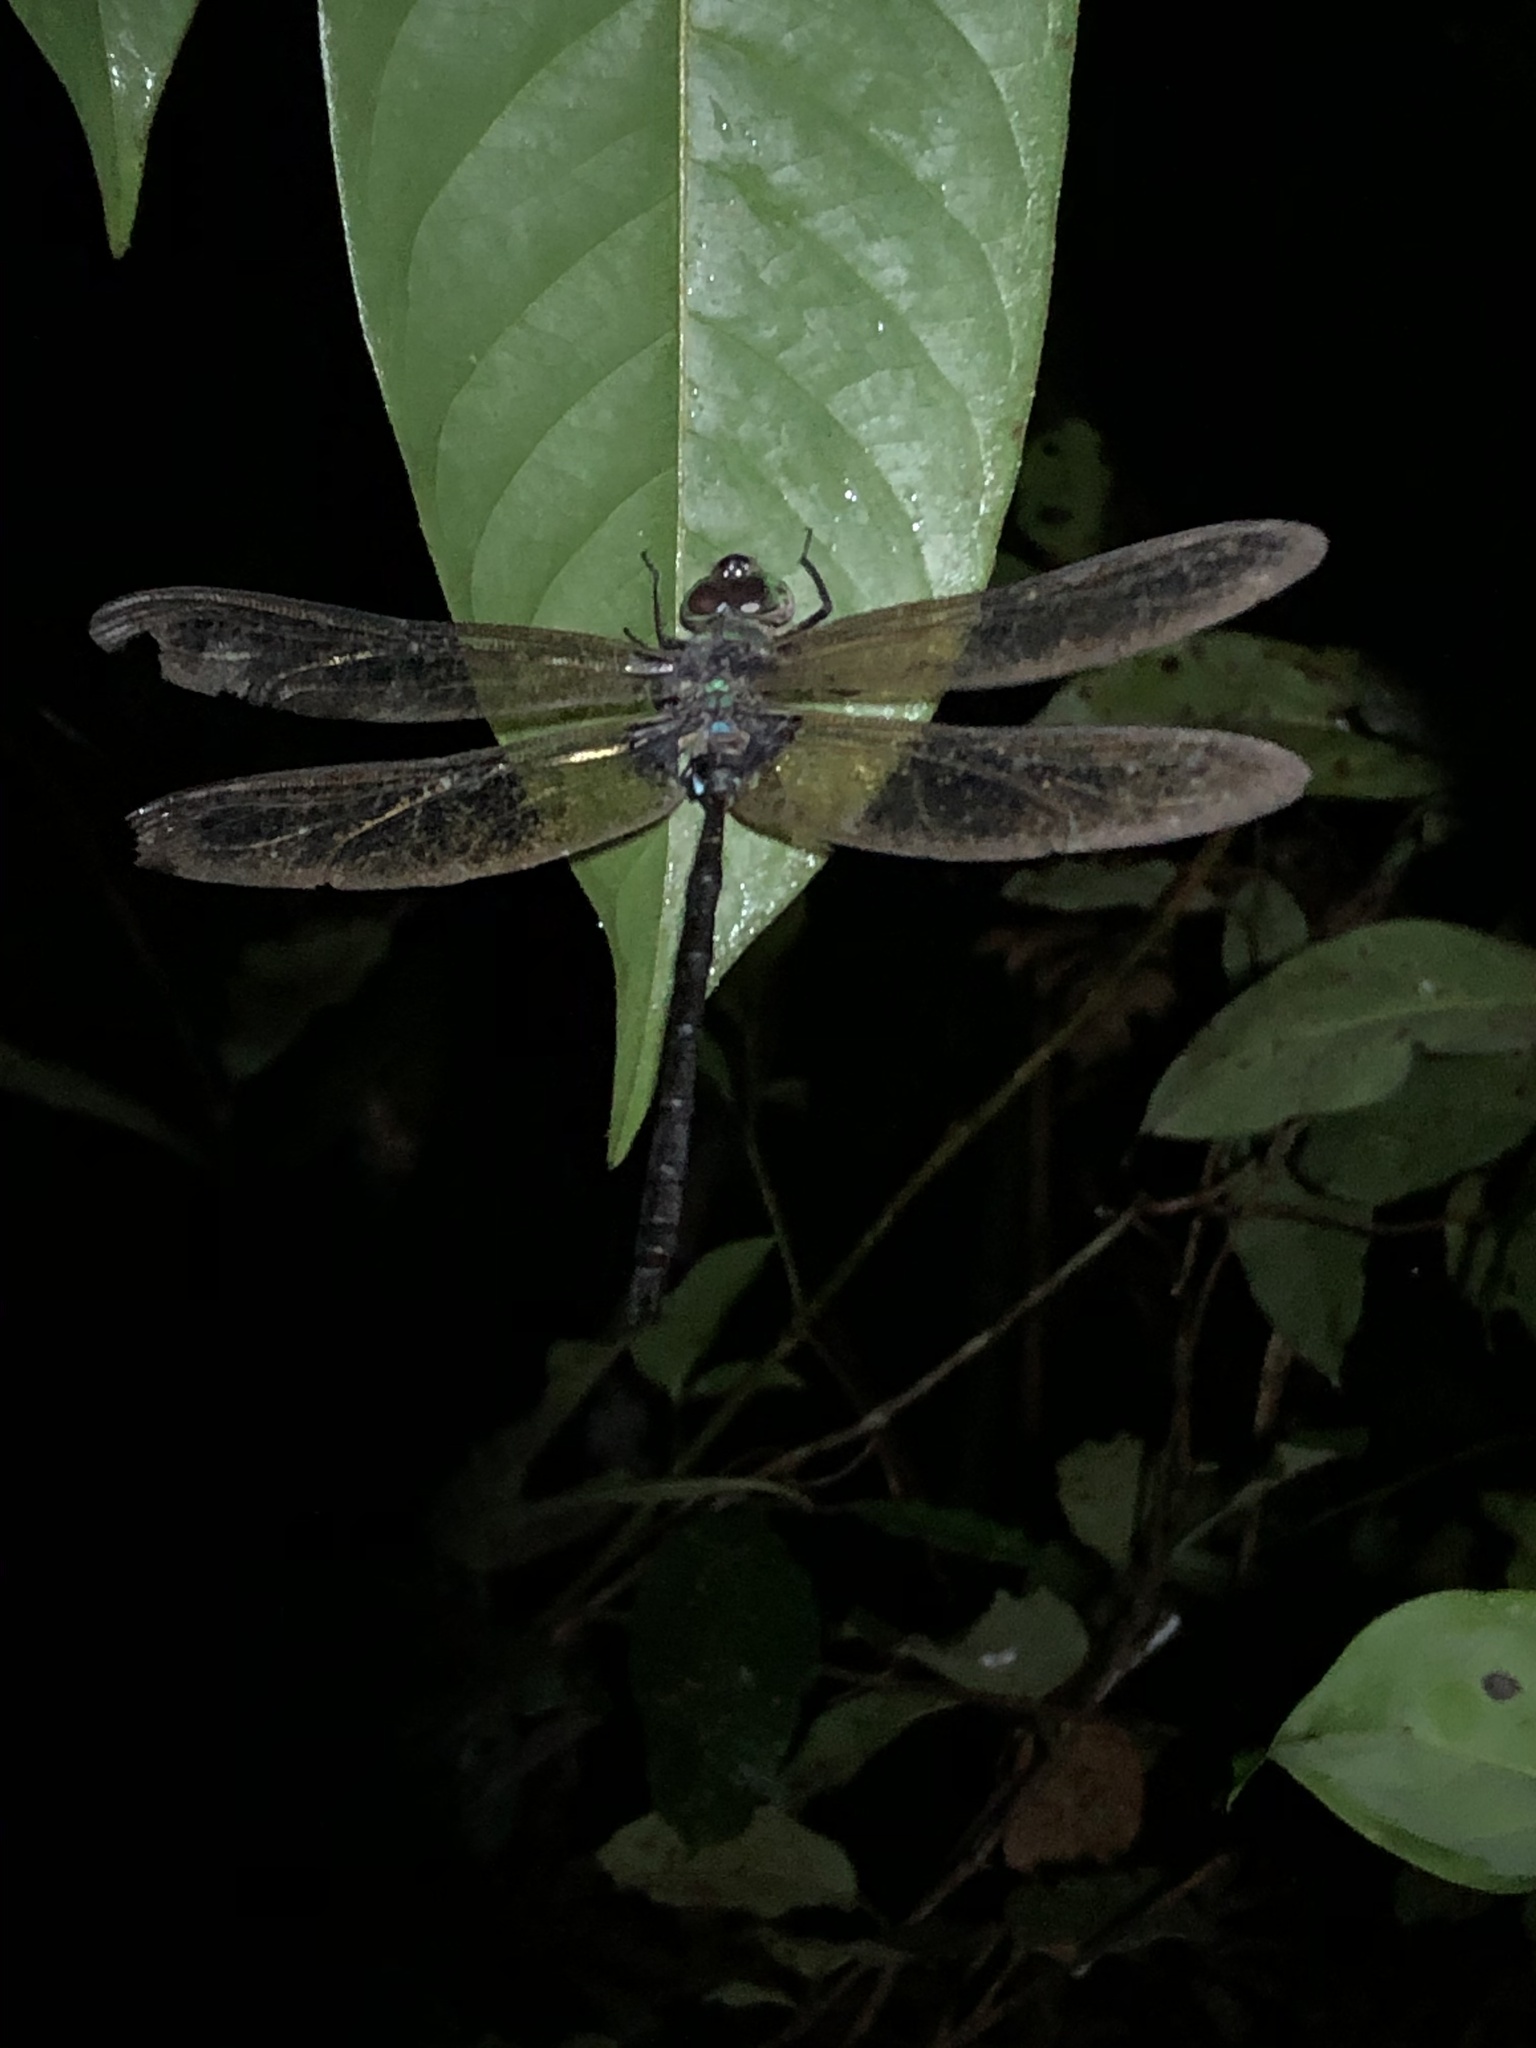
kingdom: Animalia
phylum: Arthropoda
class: Insecta
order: Odonata
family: Aeshnidae
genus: Gynacantha
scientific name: Gynacantha membranalis
